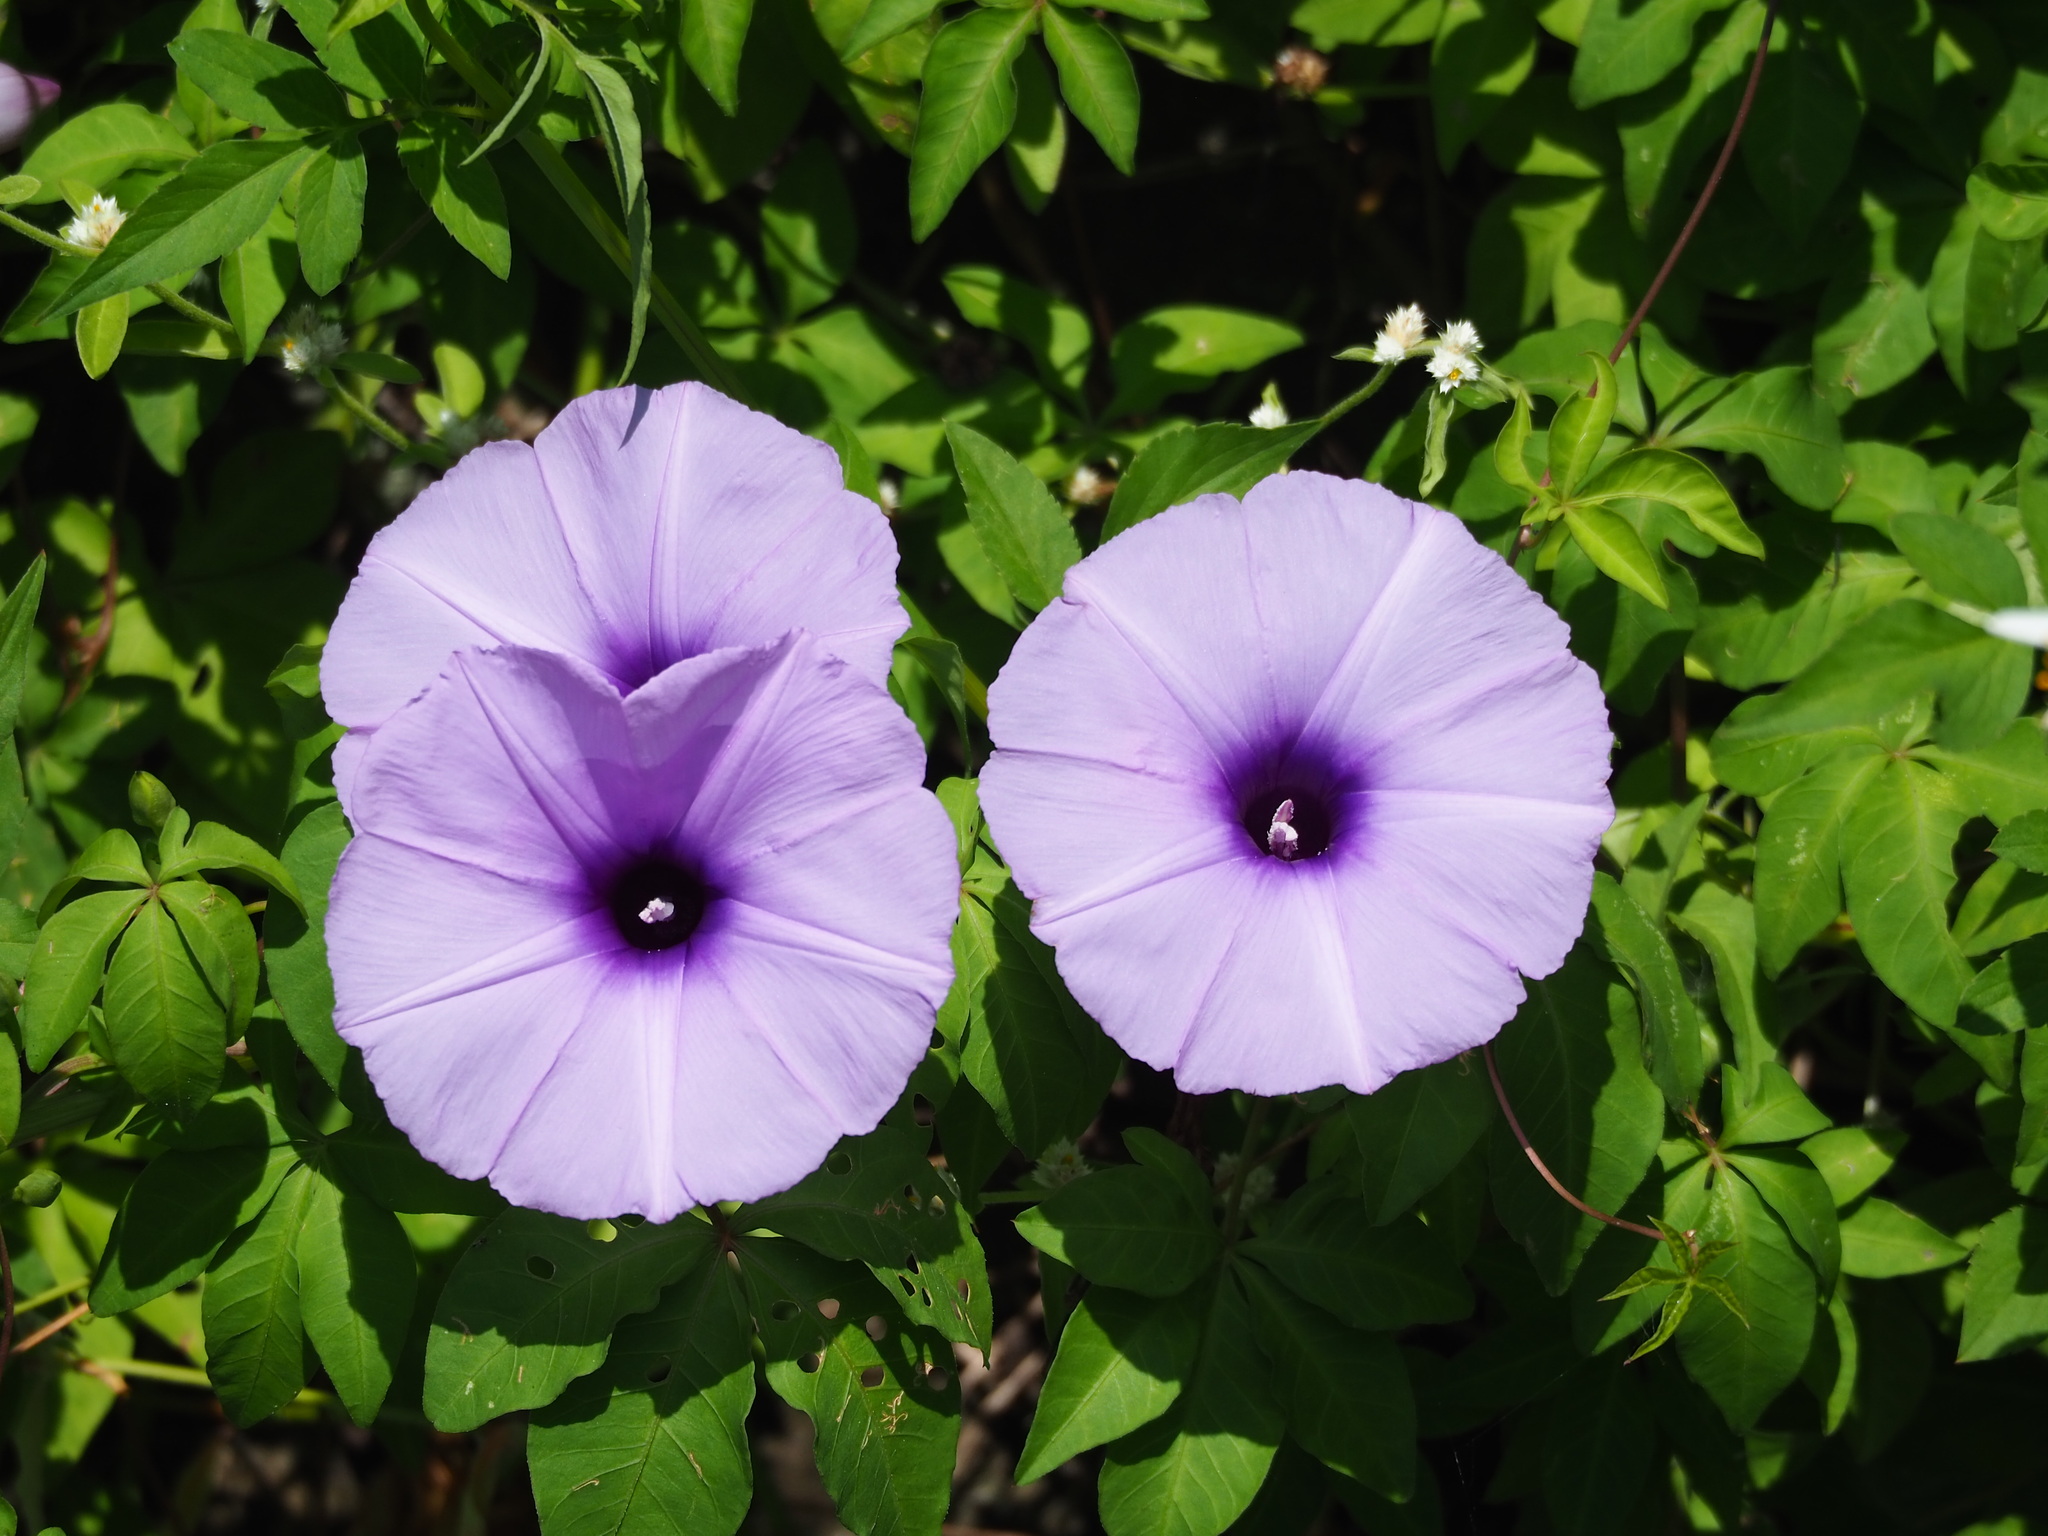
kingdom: Plantae
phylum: Tracheophyta
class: Magnoliopsida
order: Solanales
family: Convolvulaceae
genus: Ipomoea
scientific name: Ipomoea cairica
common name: Mile a minute vine
